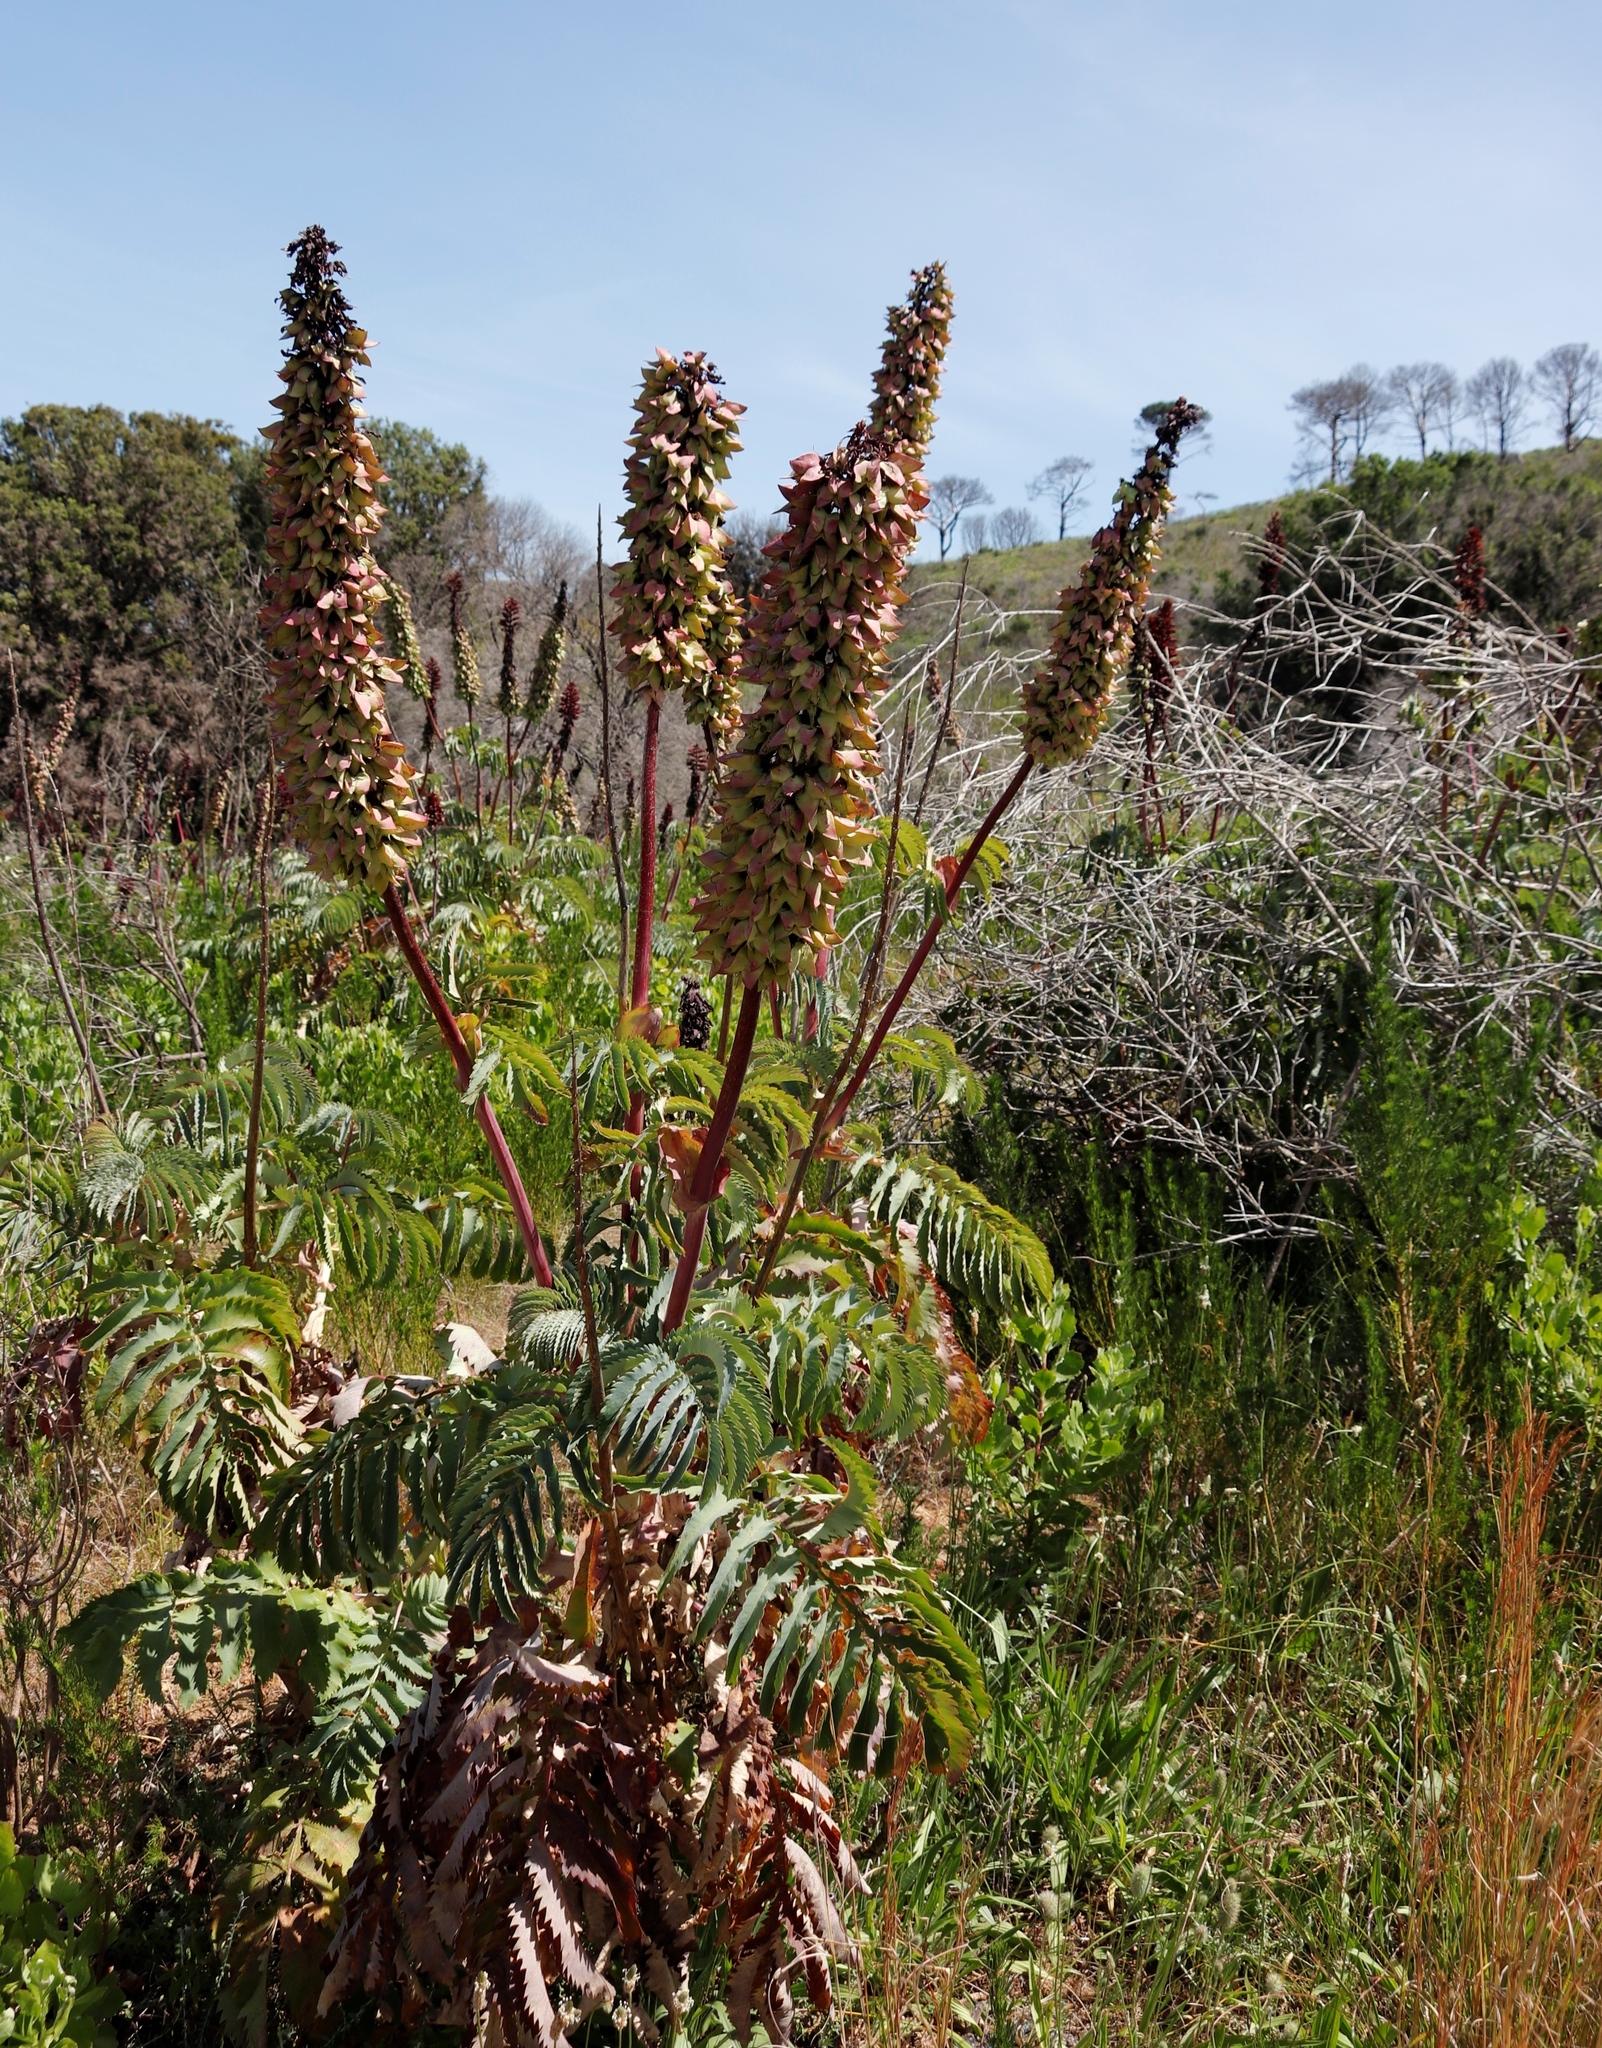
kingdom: Plantae
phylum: Tracheophyta
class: Magnoliopsida
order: Geraniales
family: Melianthaceae
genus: Melianthus
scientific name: Melianthus major
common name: Honey-flower
